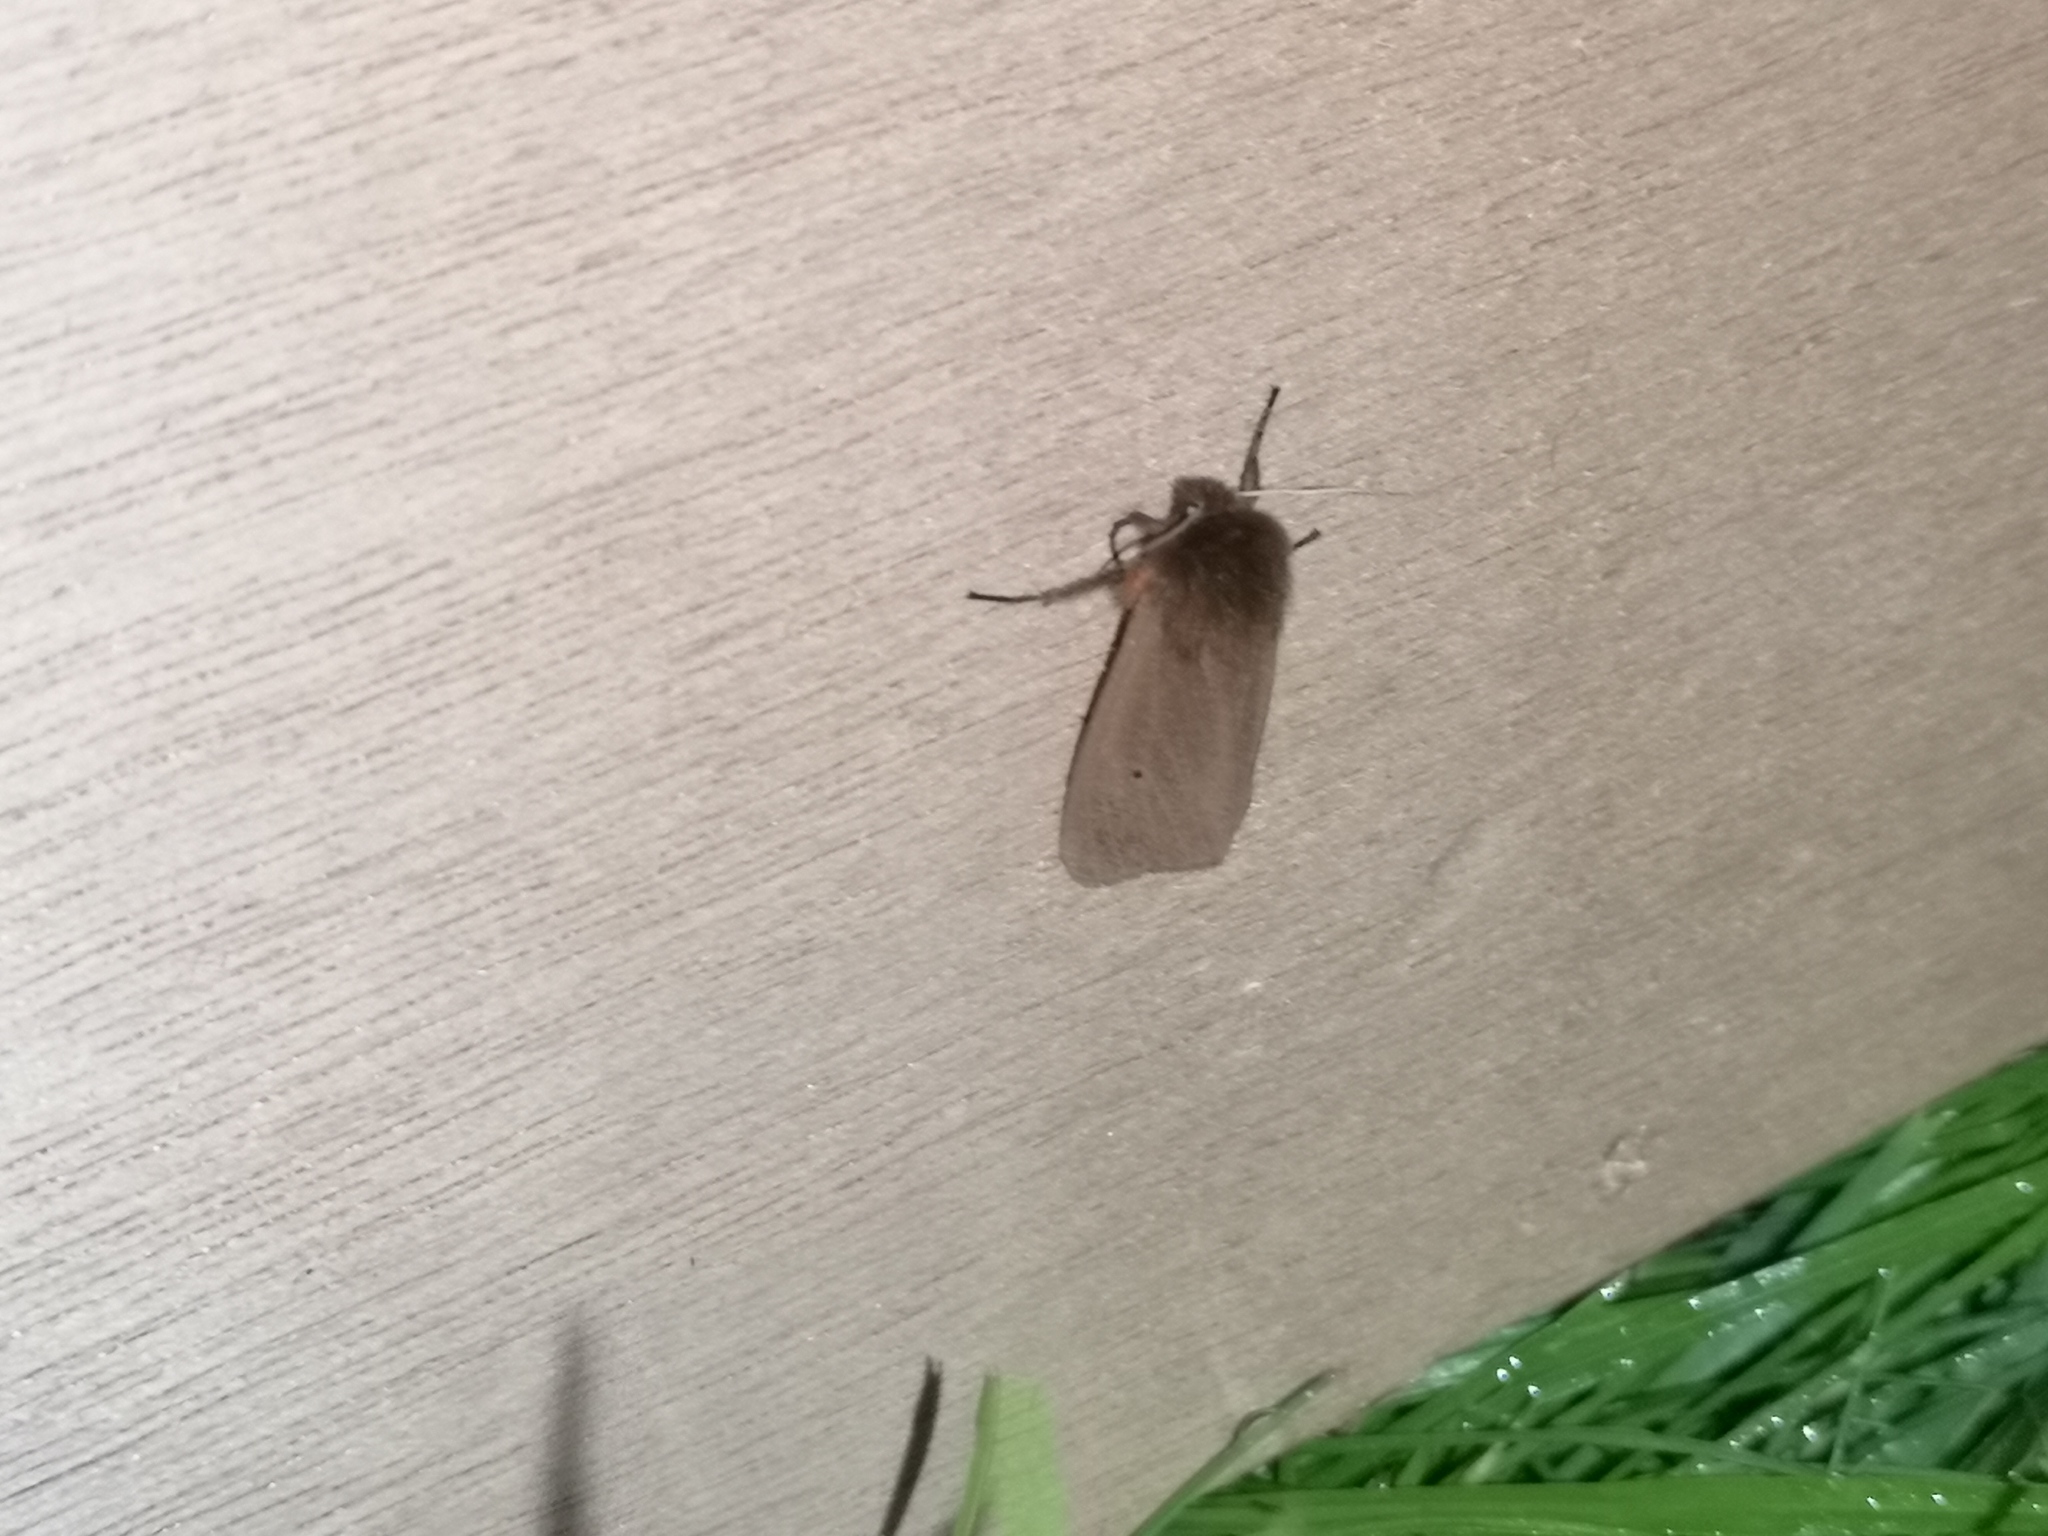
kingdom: Animalia
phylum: Arthropoda
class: Insecta
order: Lepidoptera
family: Erebidae
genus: Phragmatobia
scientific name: Phragmatobia fuliginosa
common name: Ruby tiger
